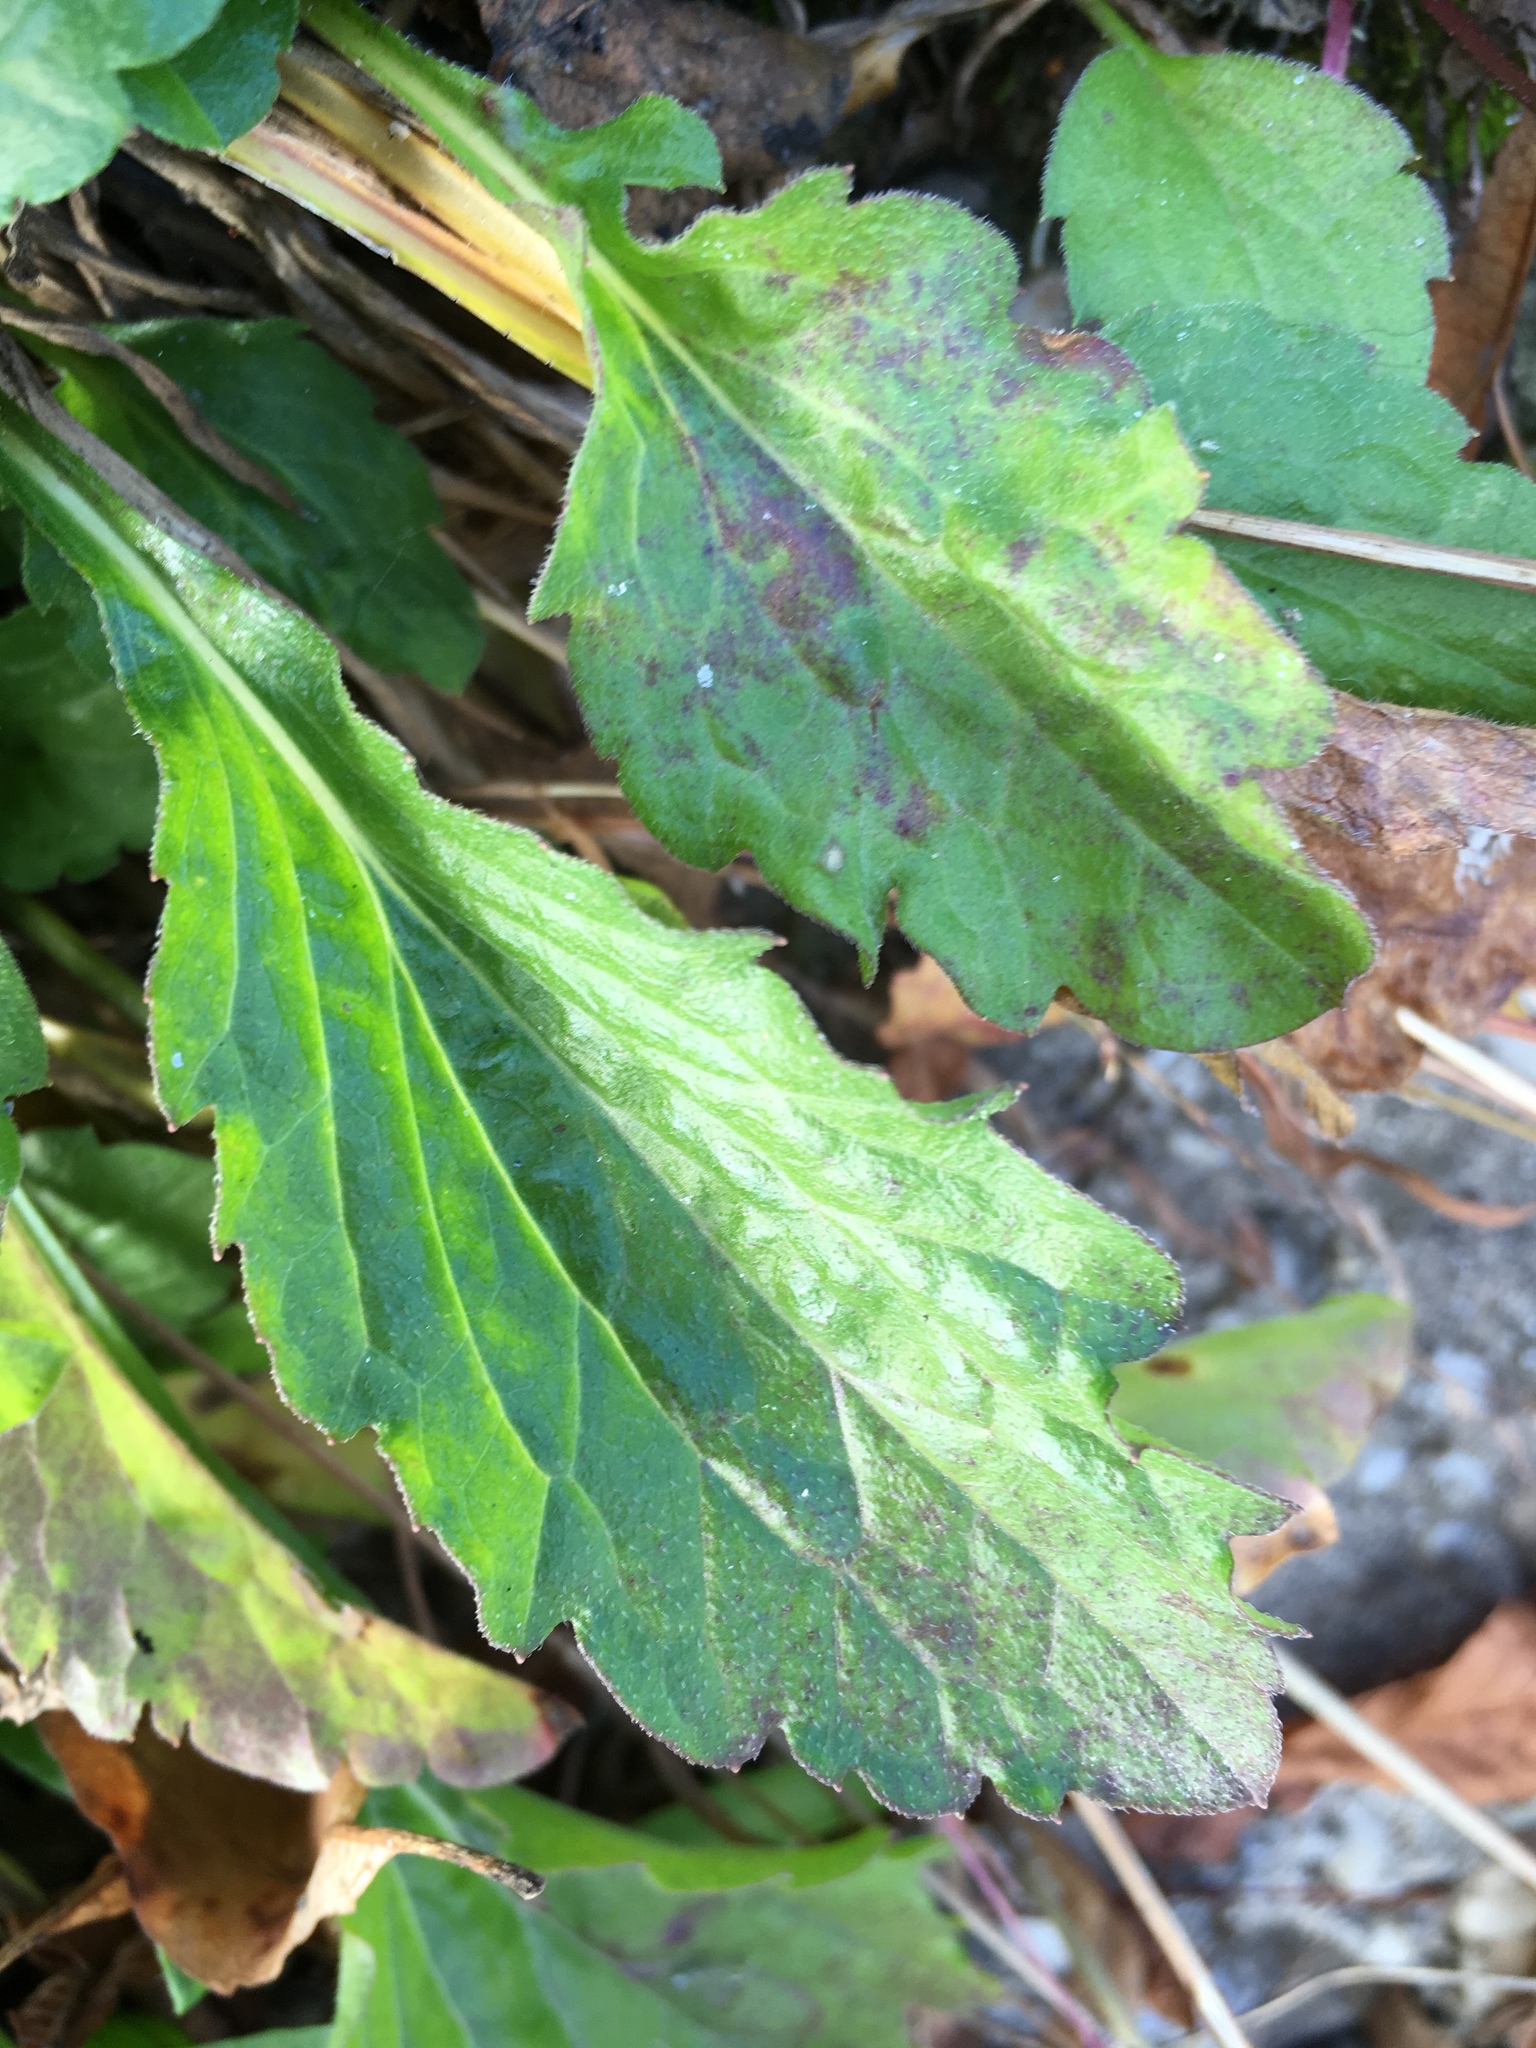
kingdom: Plantae
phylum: Tracheophyta
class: Magnoliopsida
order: Asterales
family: Asteraceae
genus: Erigeron
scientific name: Erigeron annuus
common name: Tall fleabane
